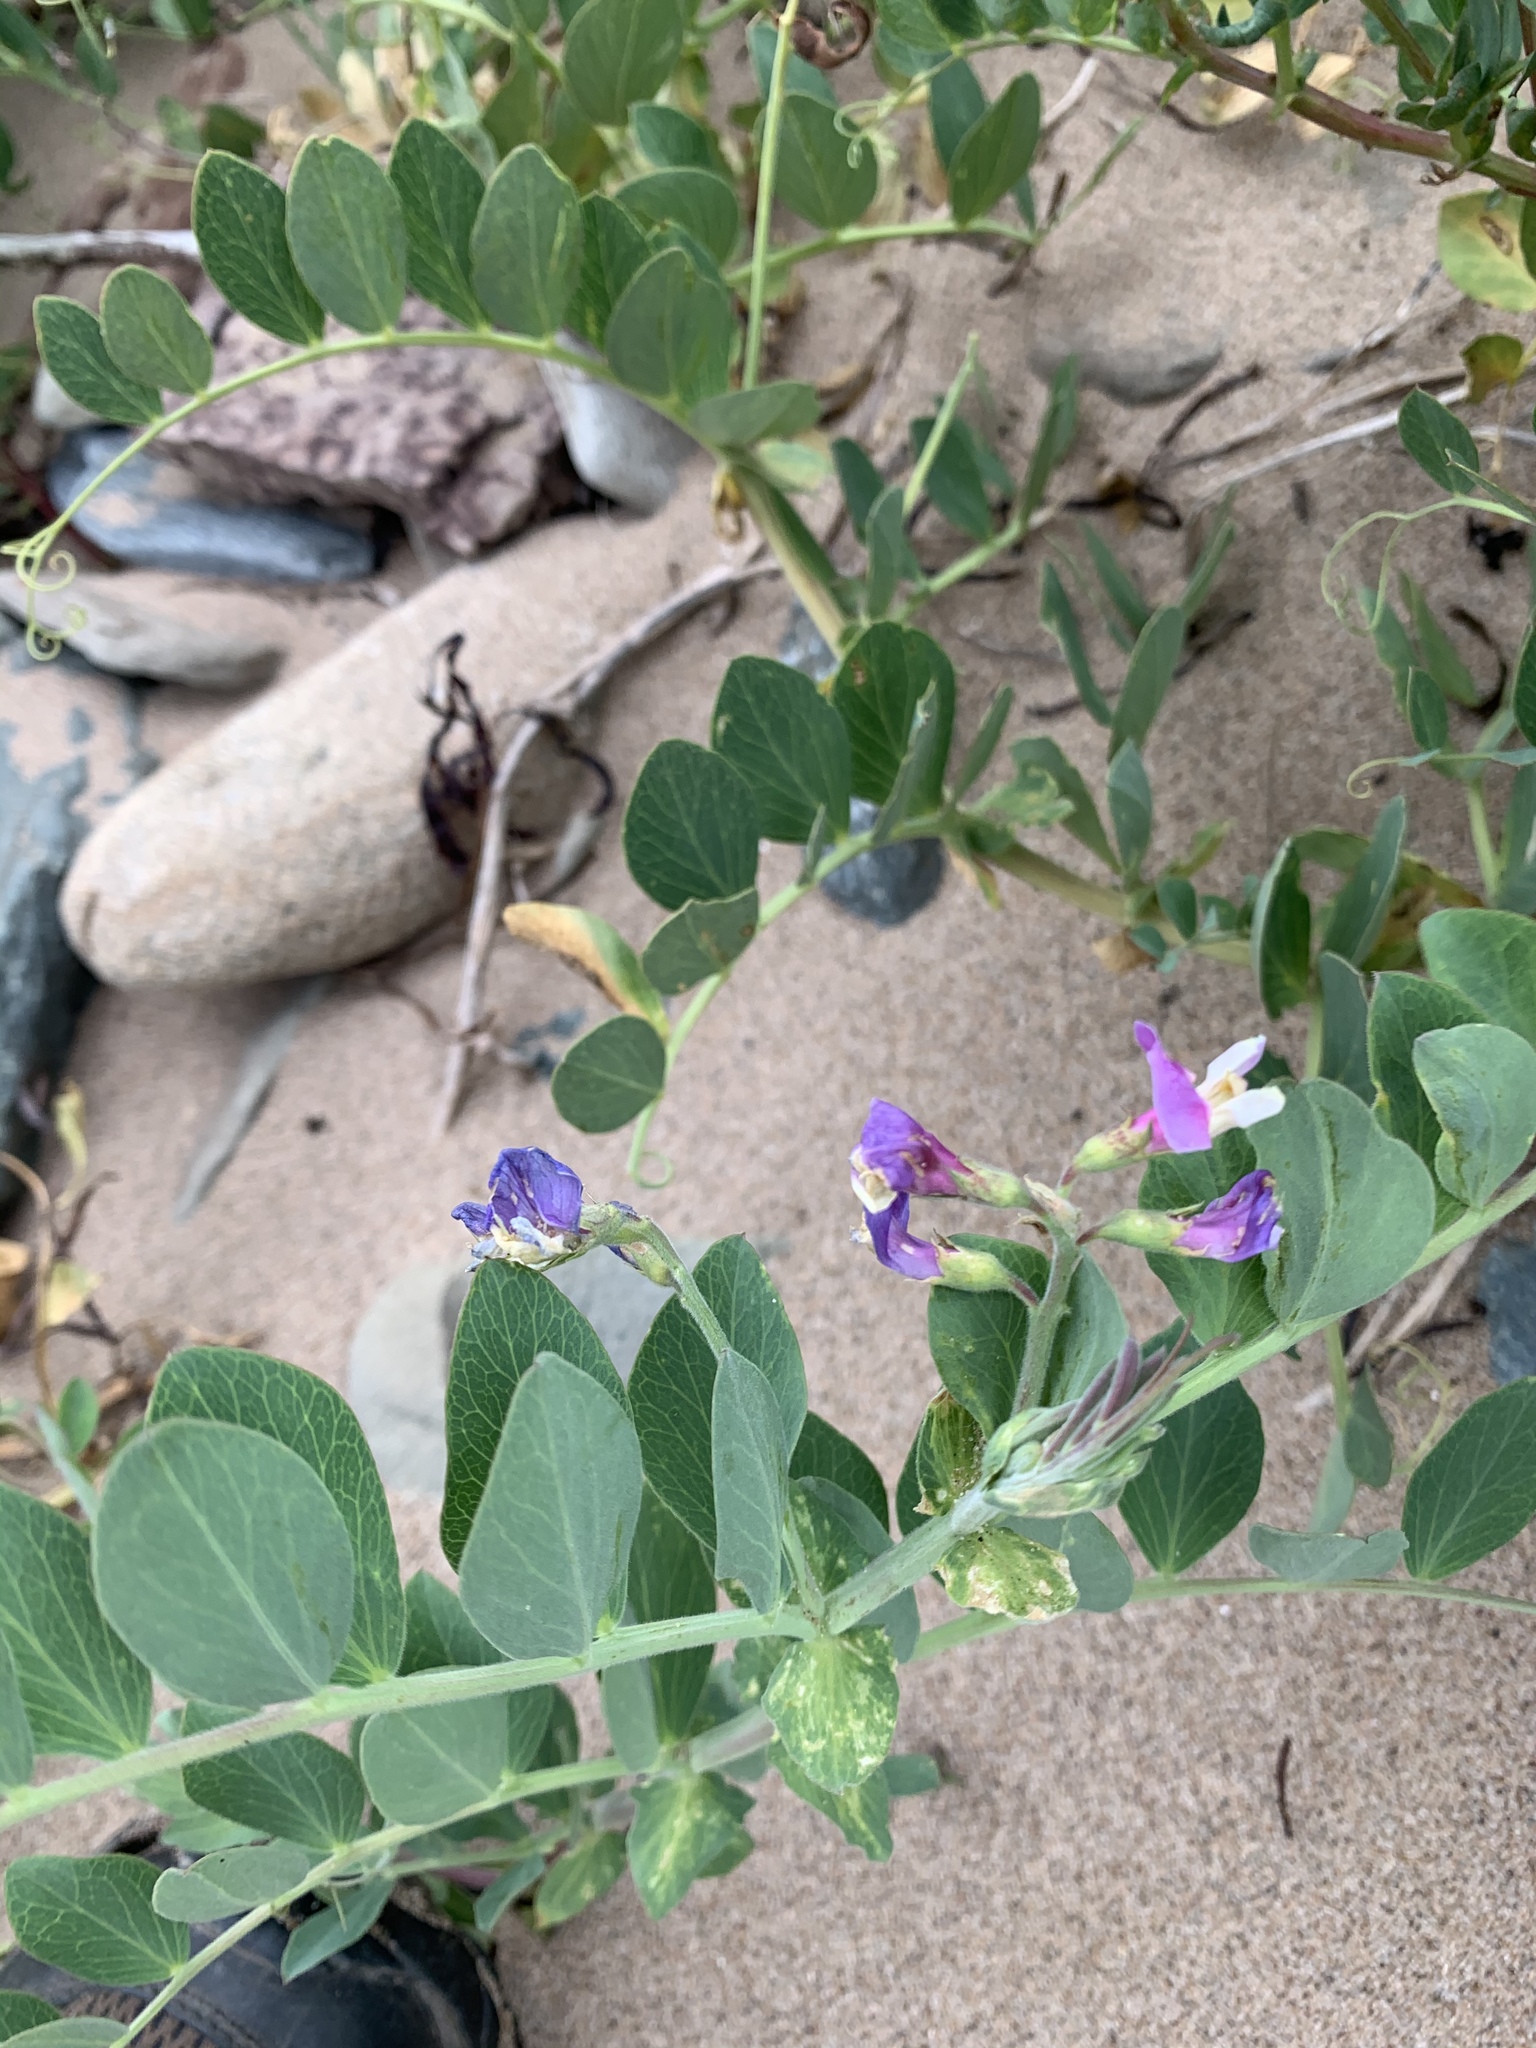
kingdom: Plantae
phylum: Tracheophyta
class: Magnoliopsida
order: Fabales
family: Fabaceae
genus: Lathyrus
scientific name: Lathyrus japonicus
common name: Sea pea
